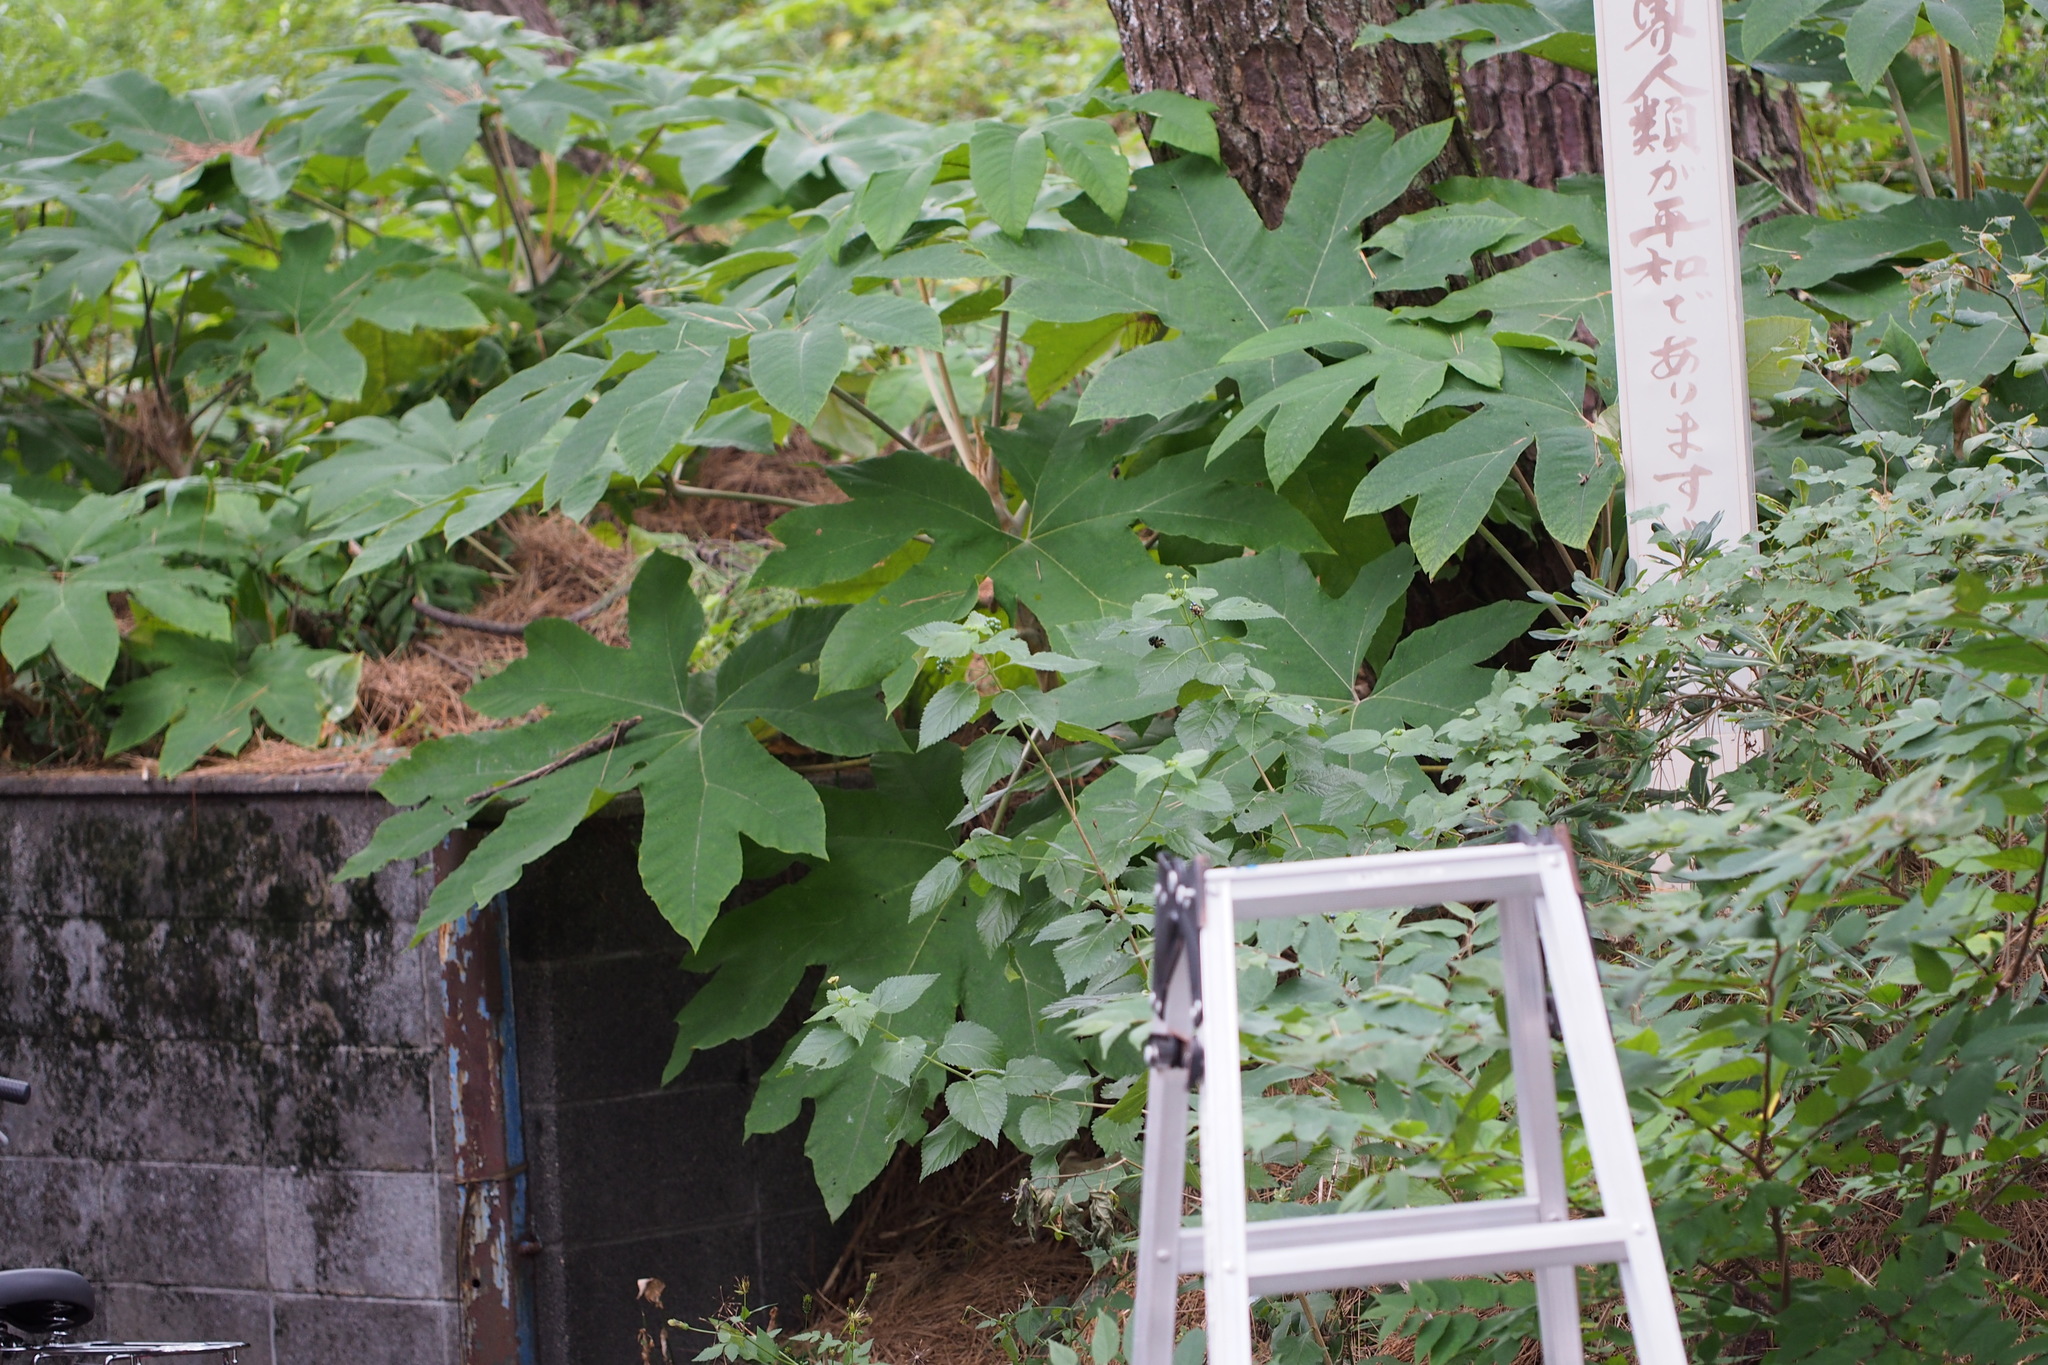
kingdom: Plantae
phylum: Tracheophyta
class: Magnoliopsida
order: Apiales
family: Araliaceae
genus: Tetrapanax
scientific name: Tetrapanax papyrifer
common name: Rice-paper plant
